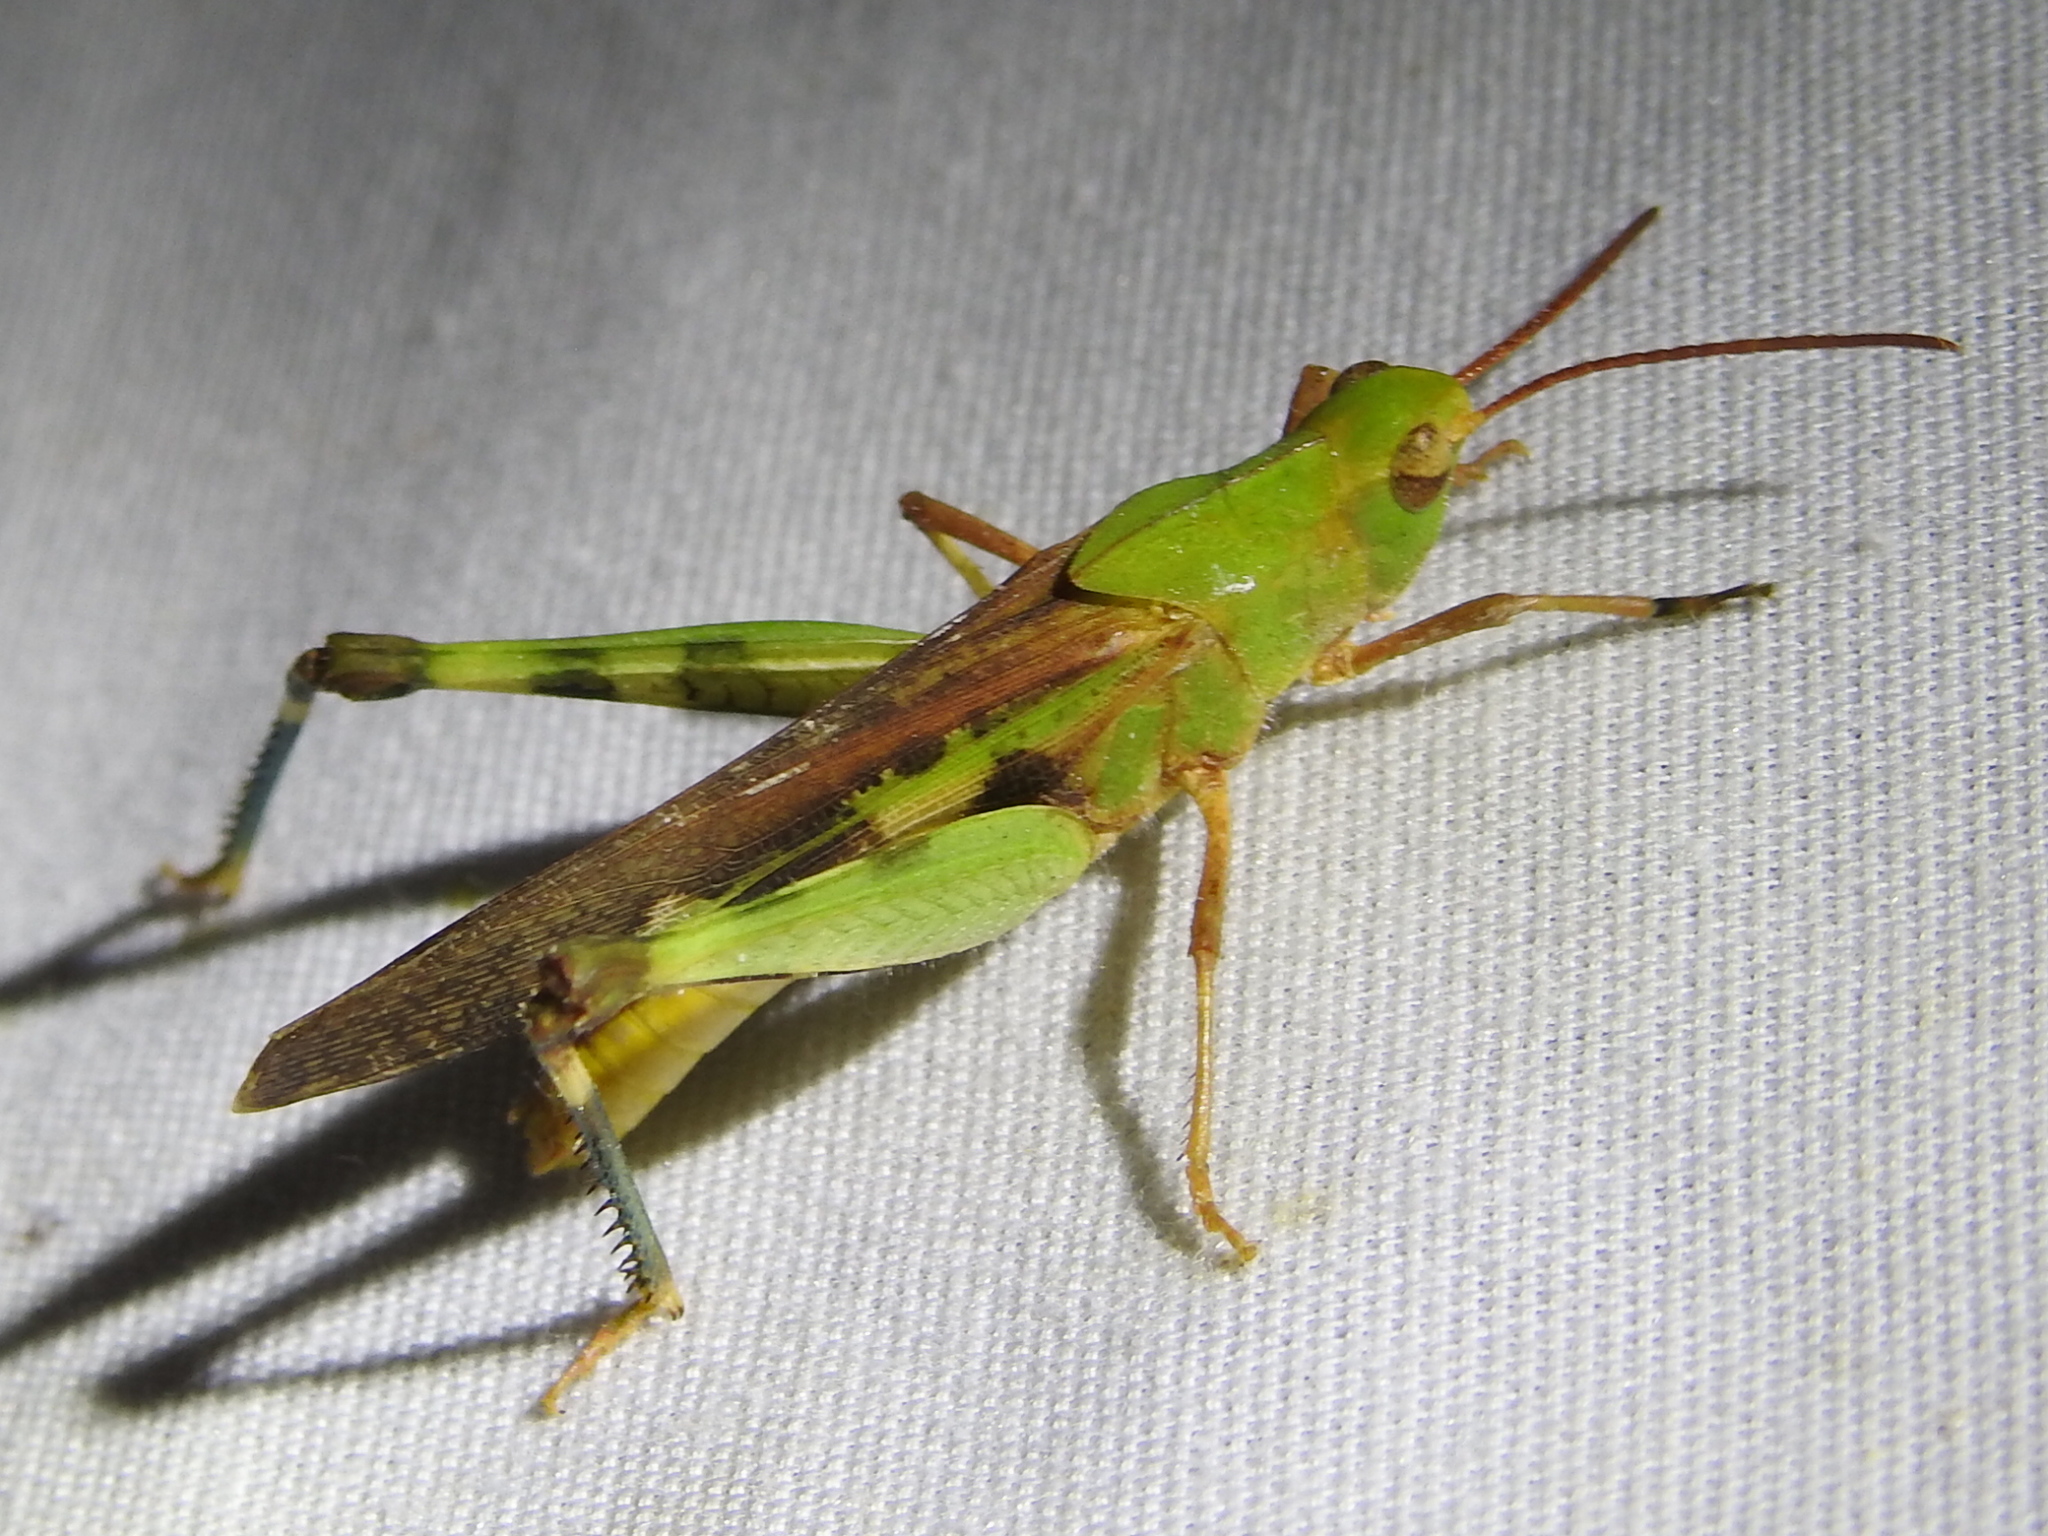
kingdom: Animalia
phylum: Arthropoda
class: Insecta
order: Orthoptera
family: Acrididae
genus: Chortophaga
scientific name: Chortophaga viridifasciata
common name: Green-striped grasshopper
